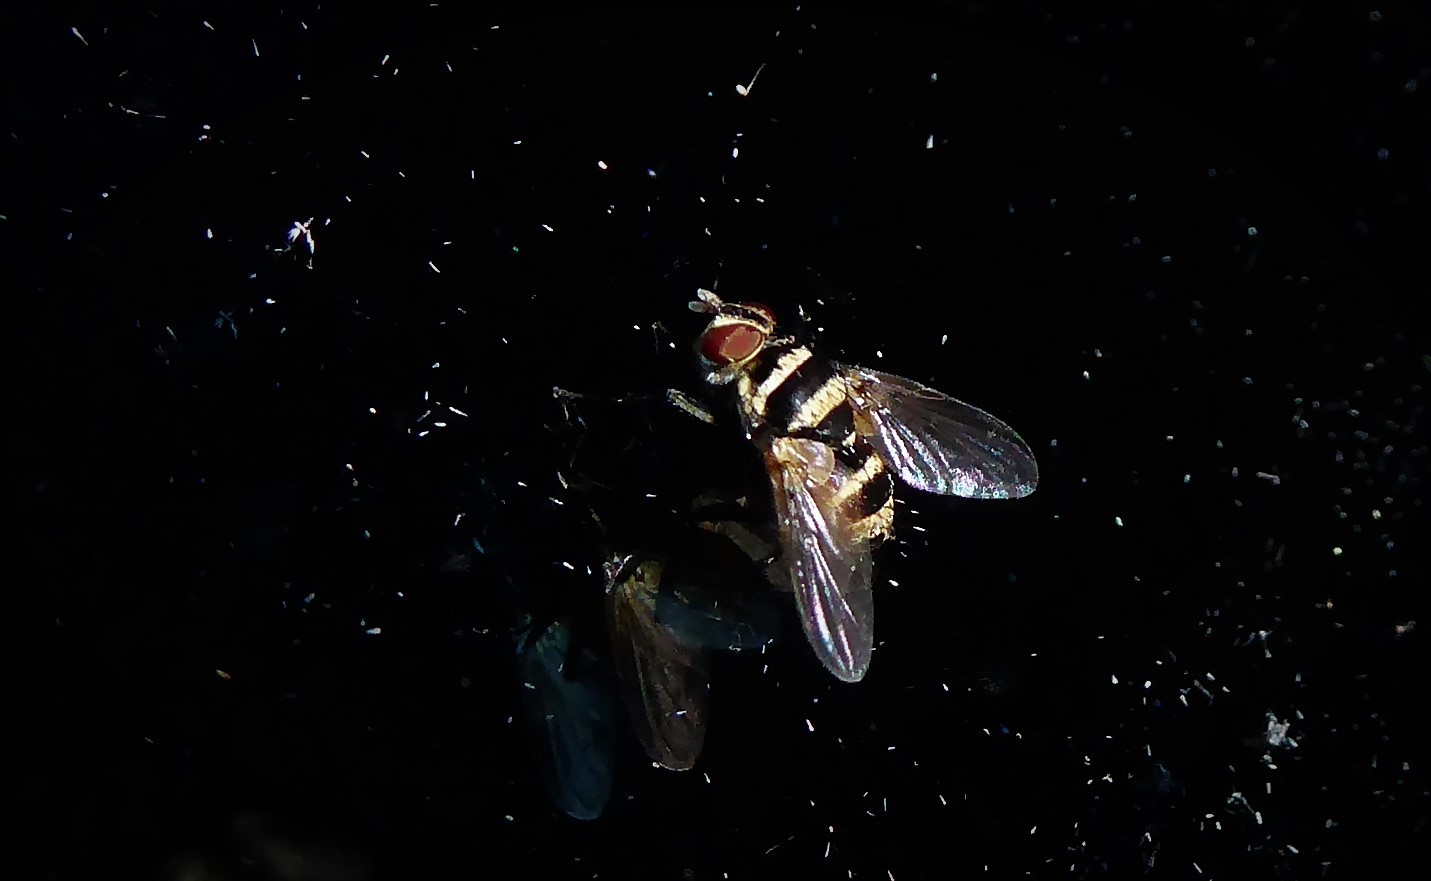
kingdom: Animalia
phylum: Arthropoda
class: Insecta
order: Diptera
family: Tachinidae
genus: Trigonospila
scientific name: Trigonospila brevifacies
